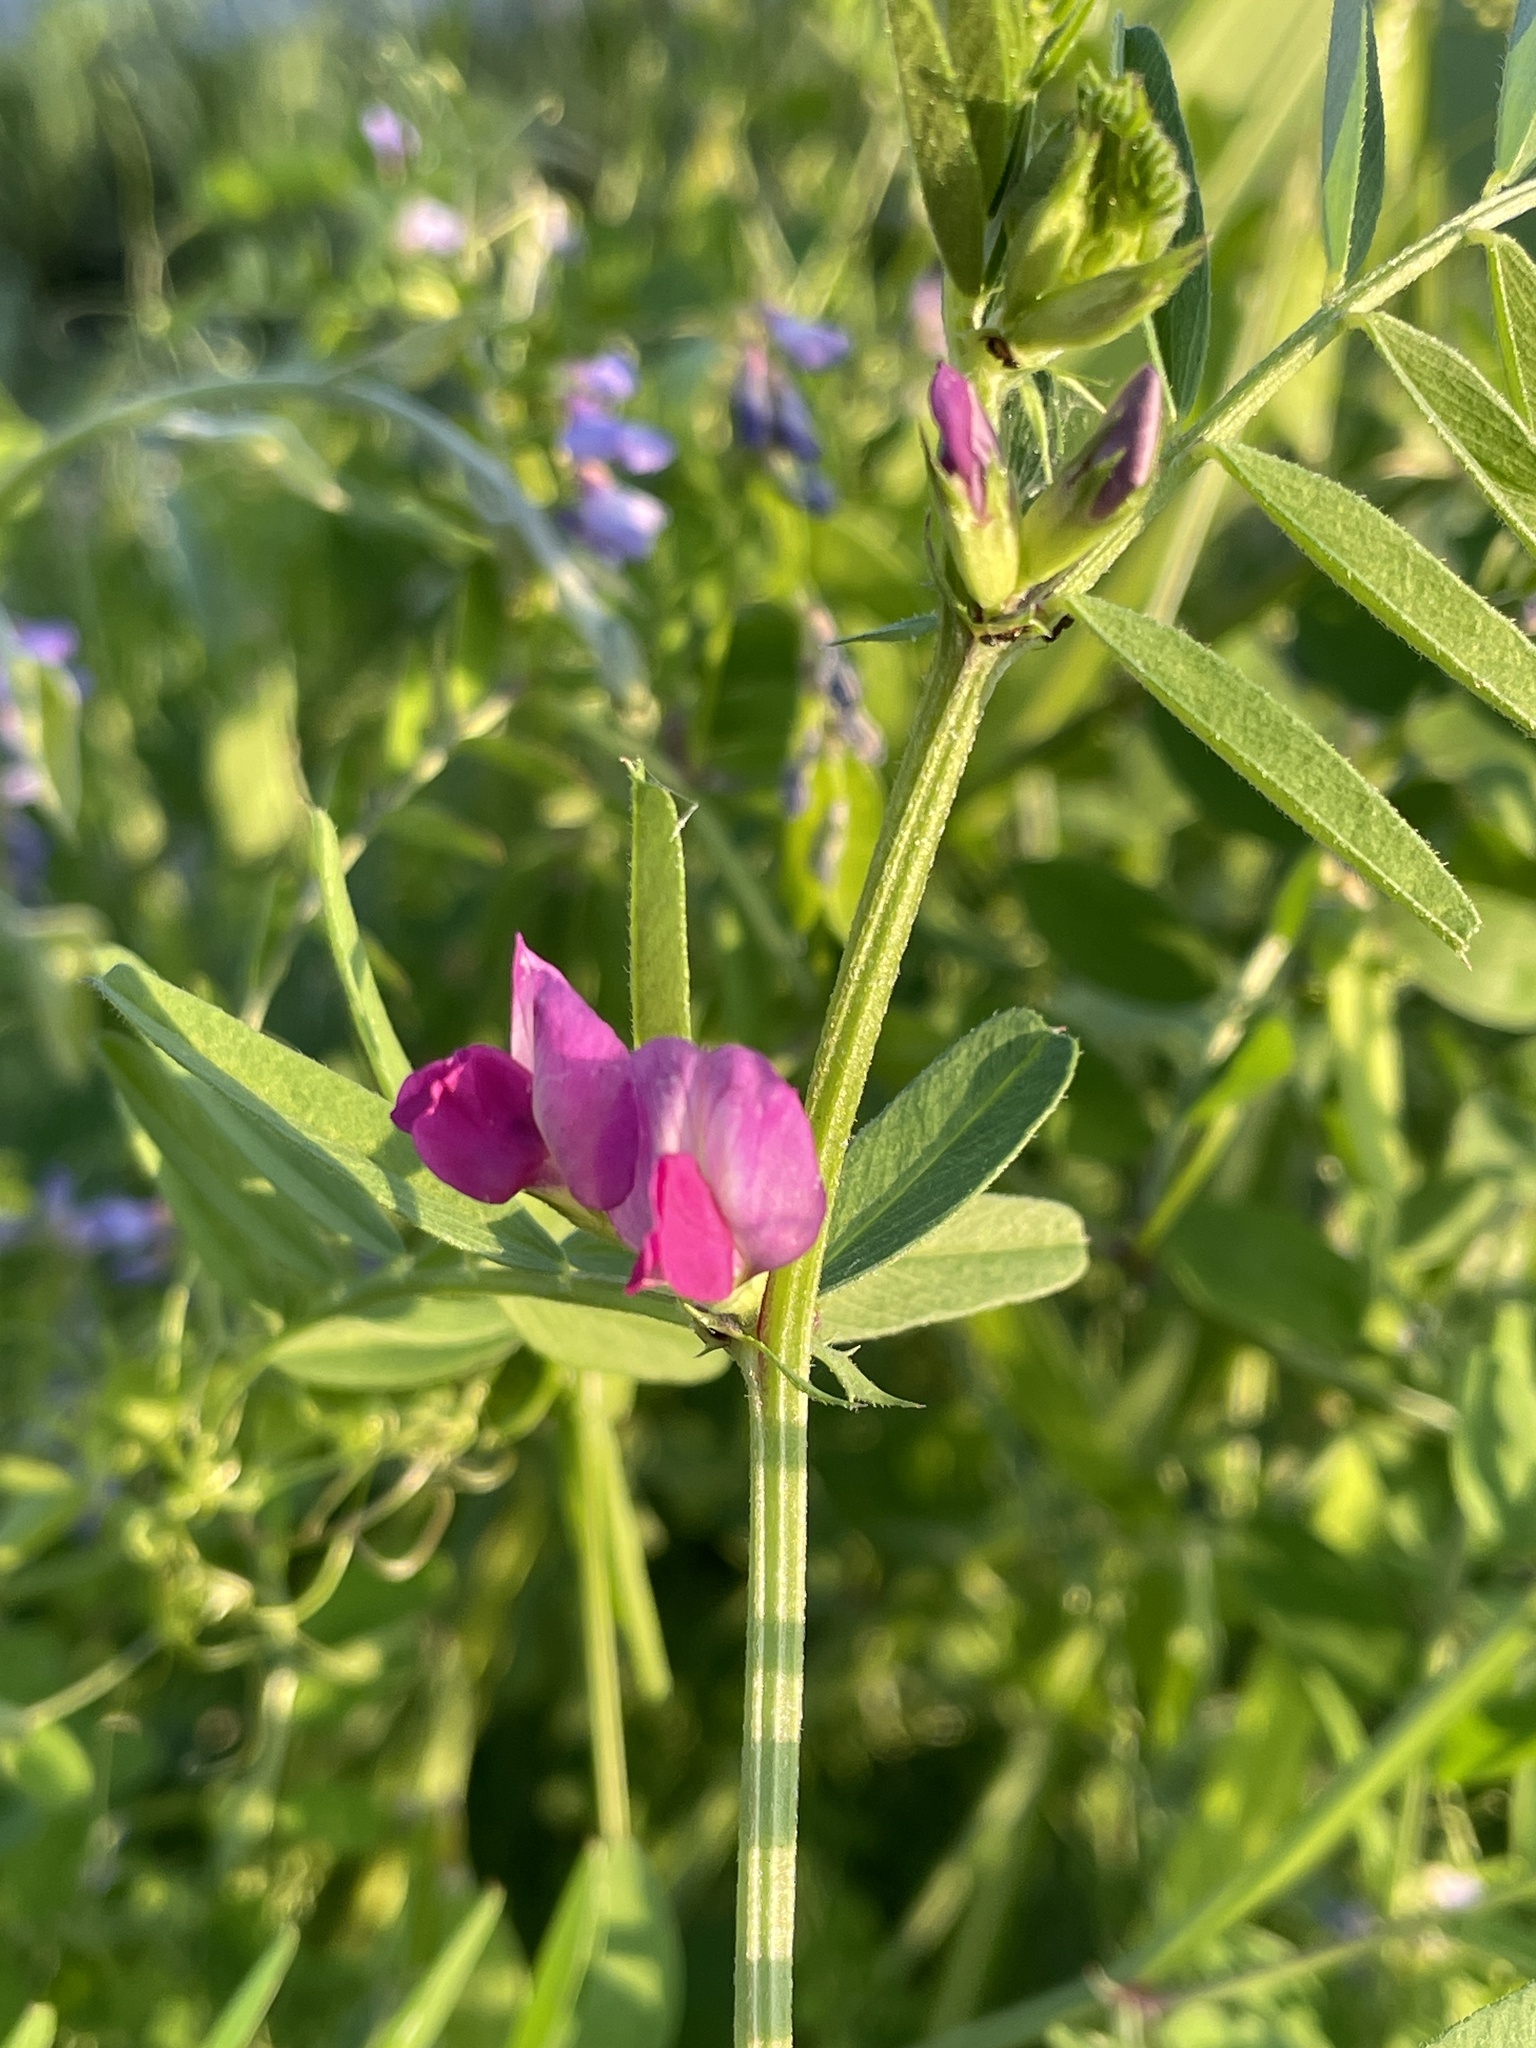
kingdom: Plantae
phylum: Tracheophyta
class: Magnoliopsida
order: Fabales
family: Fabaceae
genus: Vicia
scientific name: Vicia sativa
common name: Garden vetch
